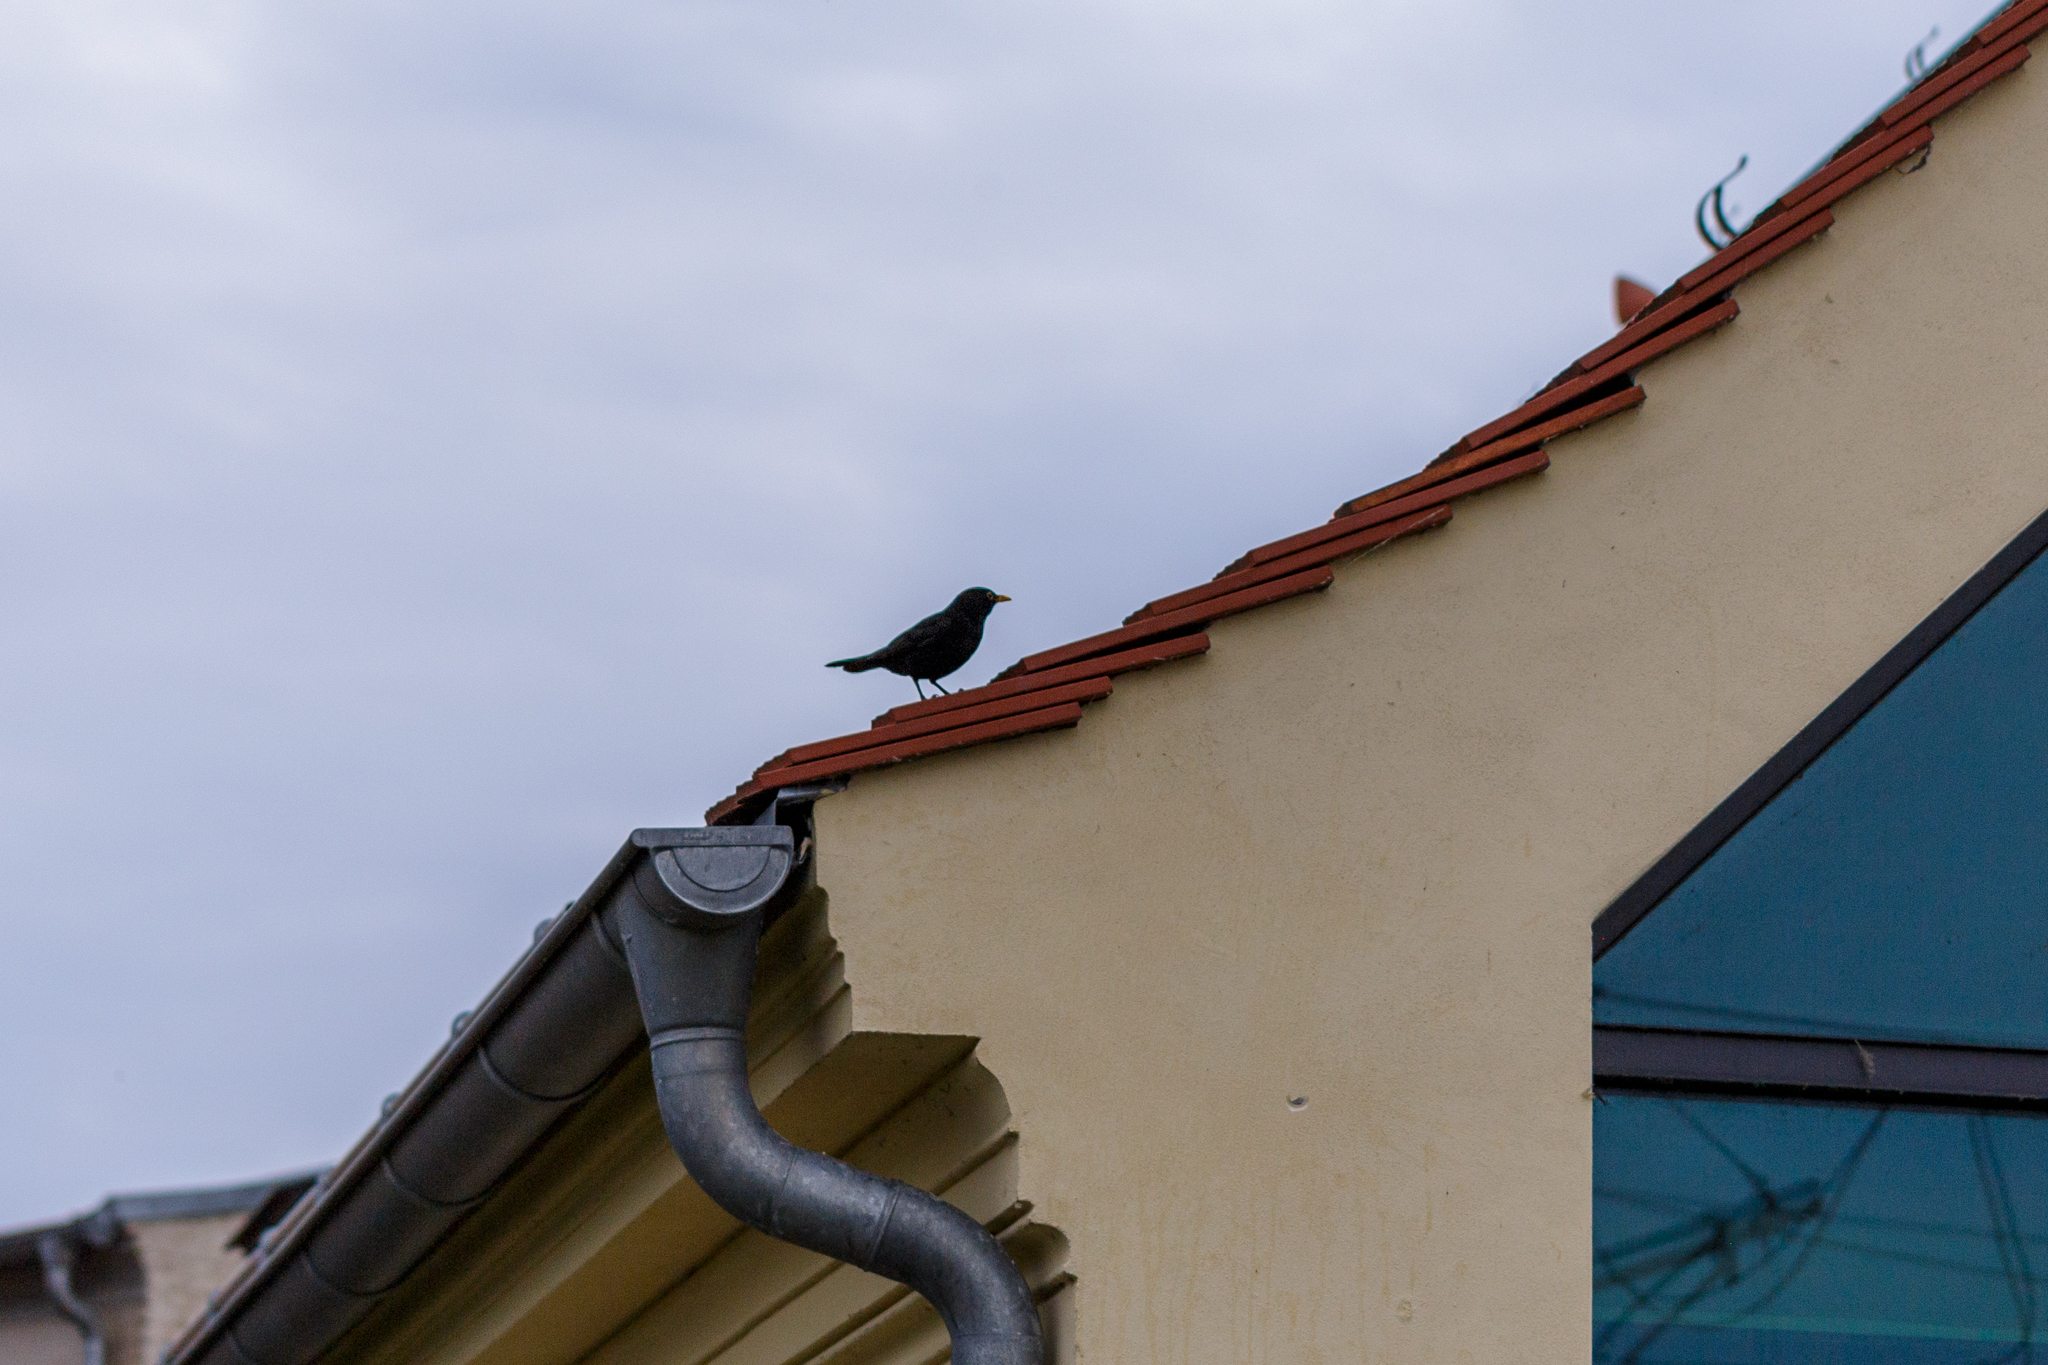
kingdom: Animalia
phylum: Chordata
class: Aves
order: Passeriformes
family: Turdidae
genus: Turdus
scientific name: Turdus merula
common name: Common blackbird
